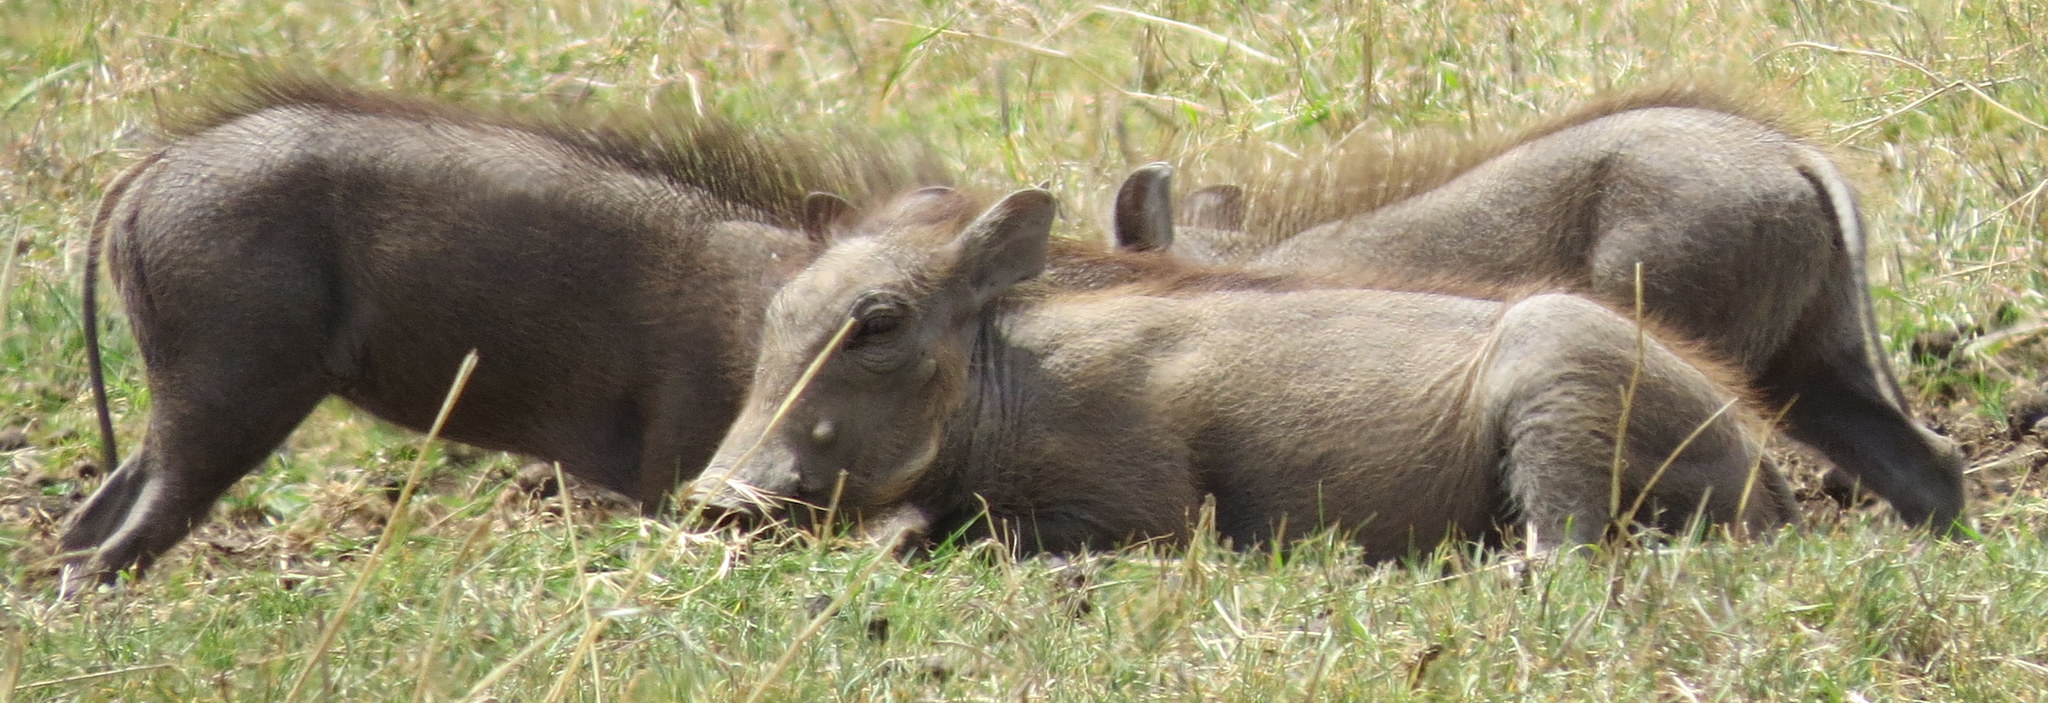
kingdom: Animalia
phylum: Chordata
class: Mammalia
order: Artiodactyla
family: Suidae
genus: Phacochoerus
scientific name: Phacochoerus africanus
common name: Common warthog
